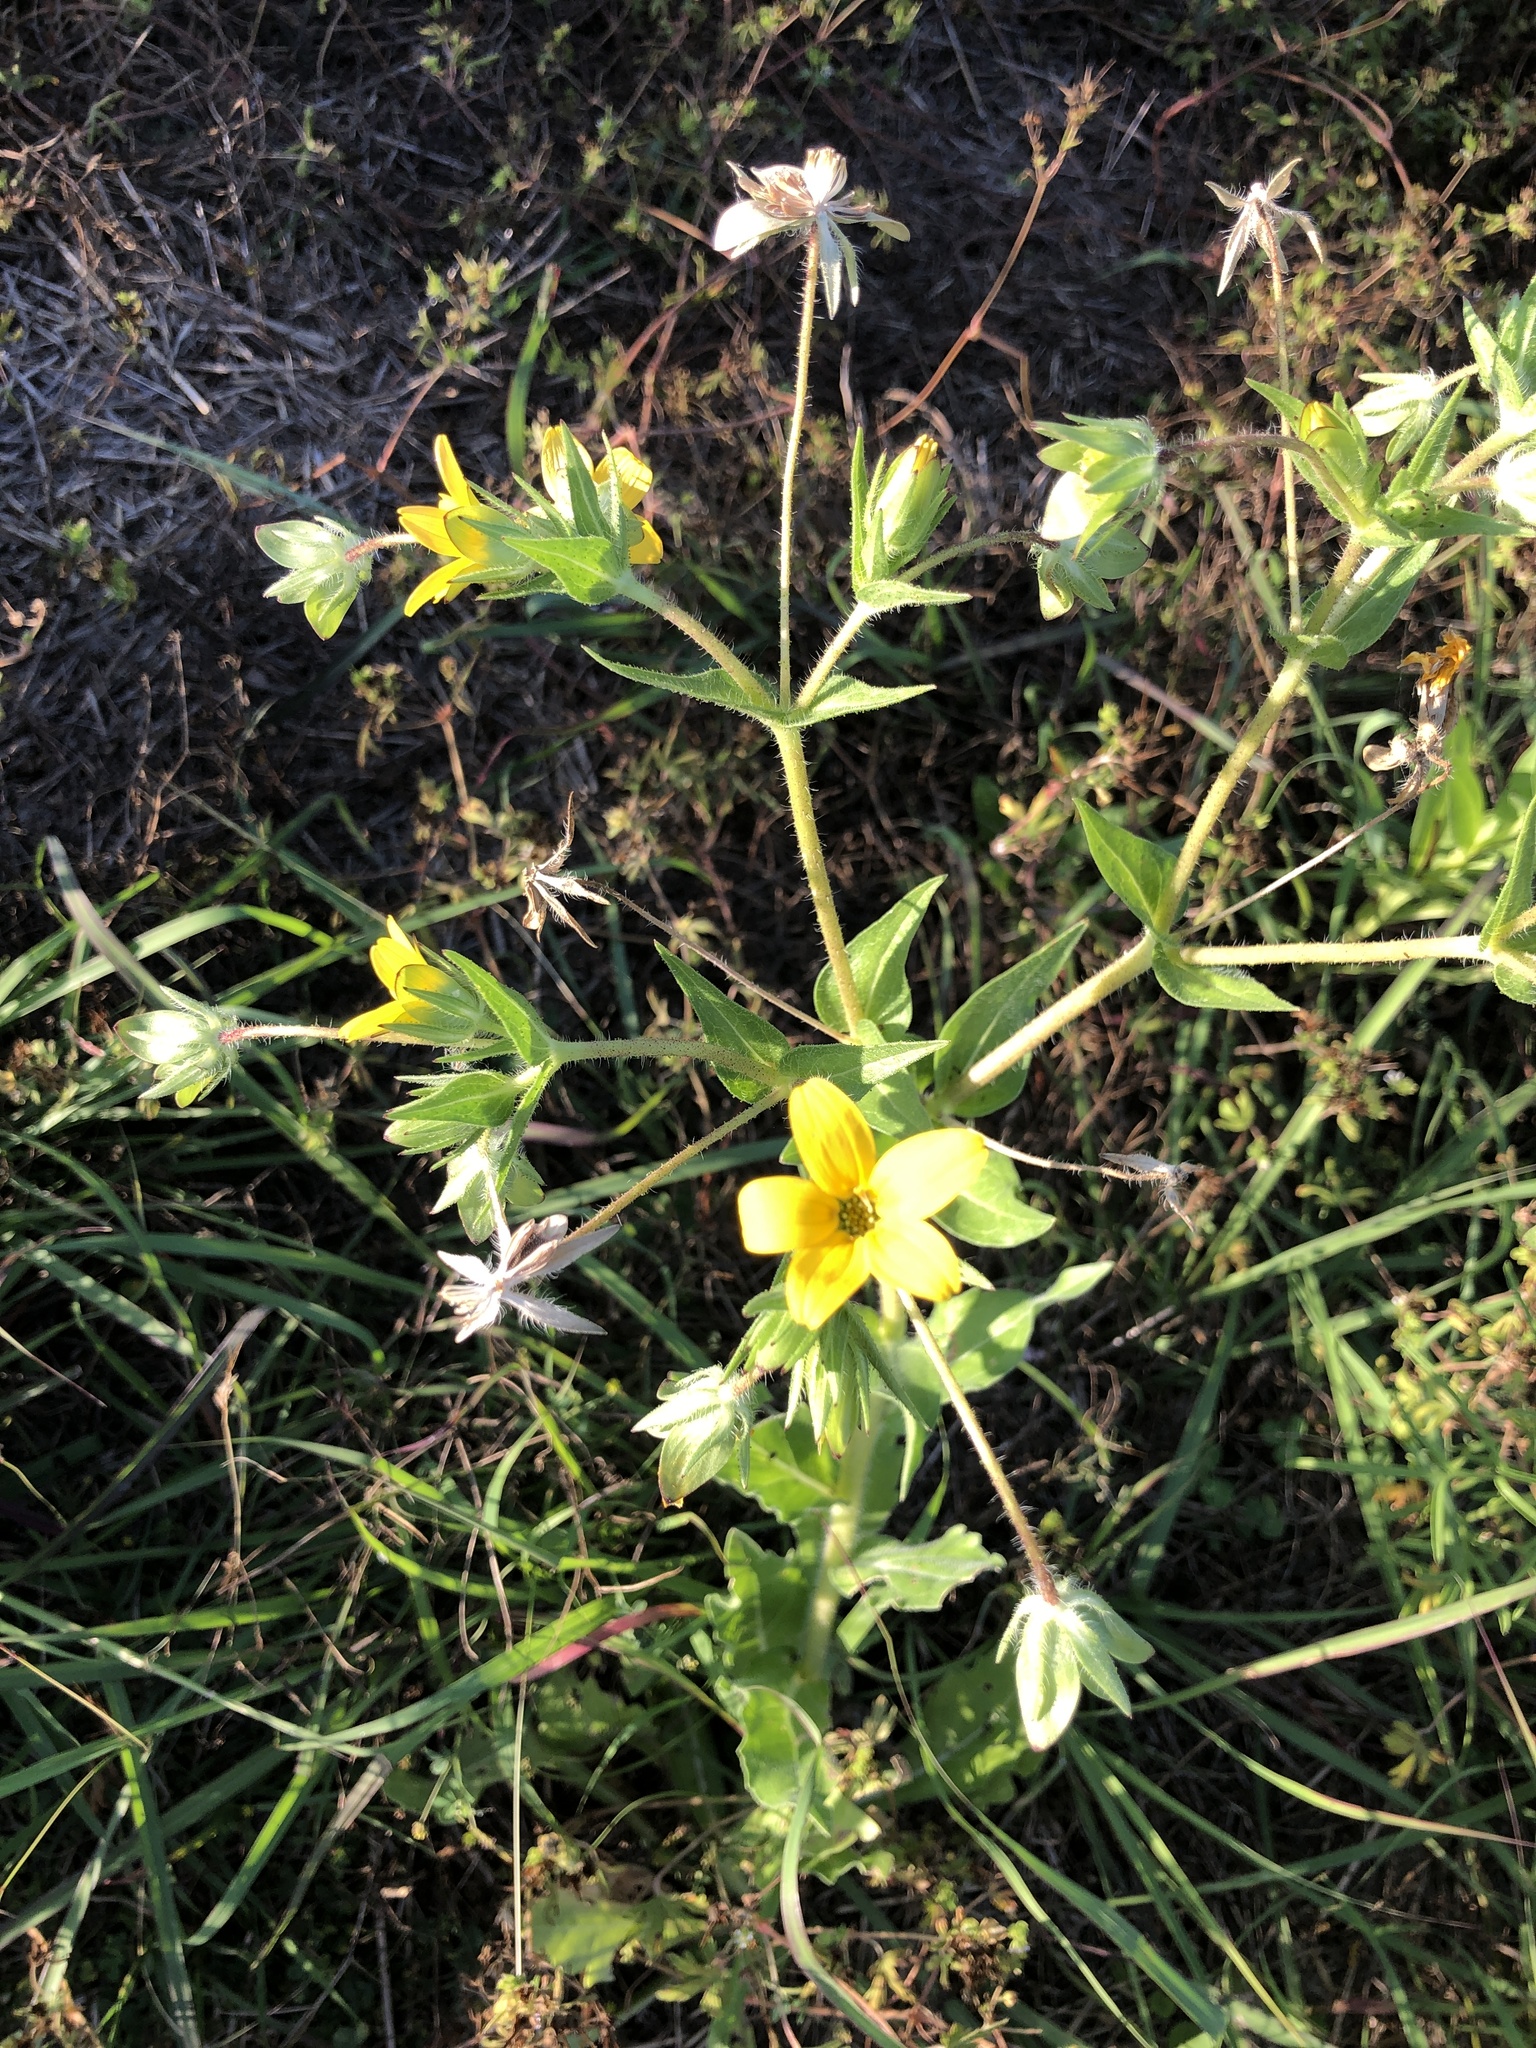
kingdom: Plantae
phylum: Tracheophyta
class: Magnoliopsida
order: Asterales
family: Asteraceae
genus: Lindheimera
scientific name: Lindheimera texana
